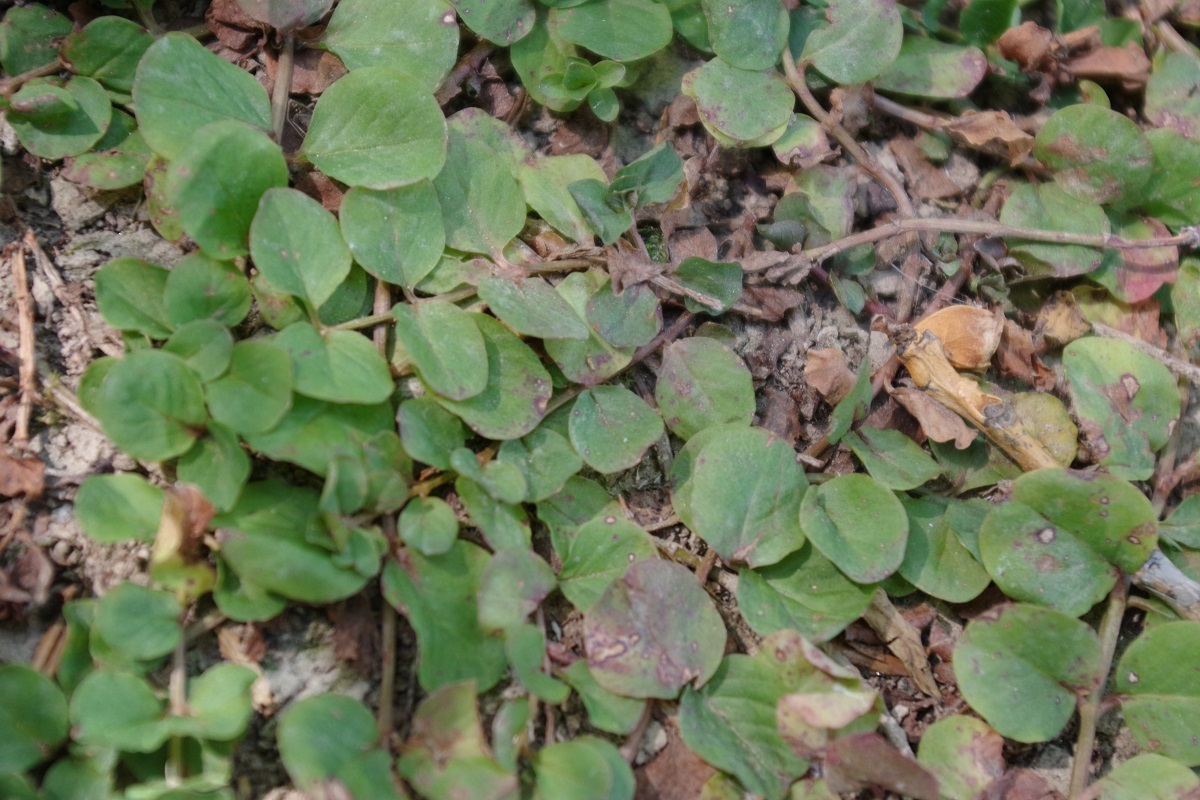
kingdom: Plantae
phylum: Tracheophyta
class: Magnoliopsida
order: Ericales
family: Primulaceae
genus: Lysimachia
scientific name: Lysimachia nummularia
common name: Moneywort
